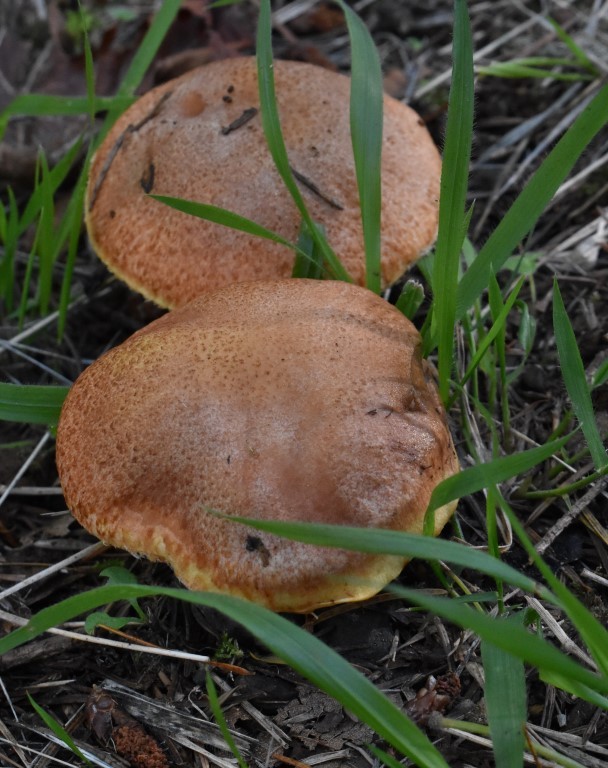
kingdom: Fungi
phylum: Basidiomycota
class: Agaricomycetes
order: Boletales
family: Suillaceae
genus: Suillus
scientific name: Suillus caerulescens
